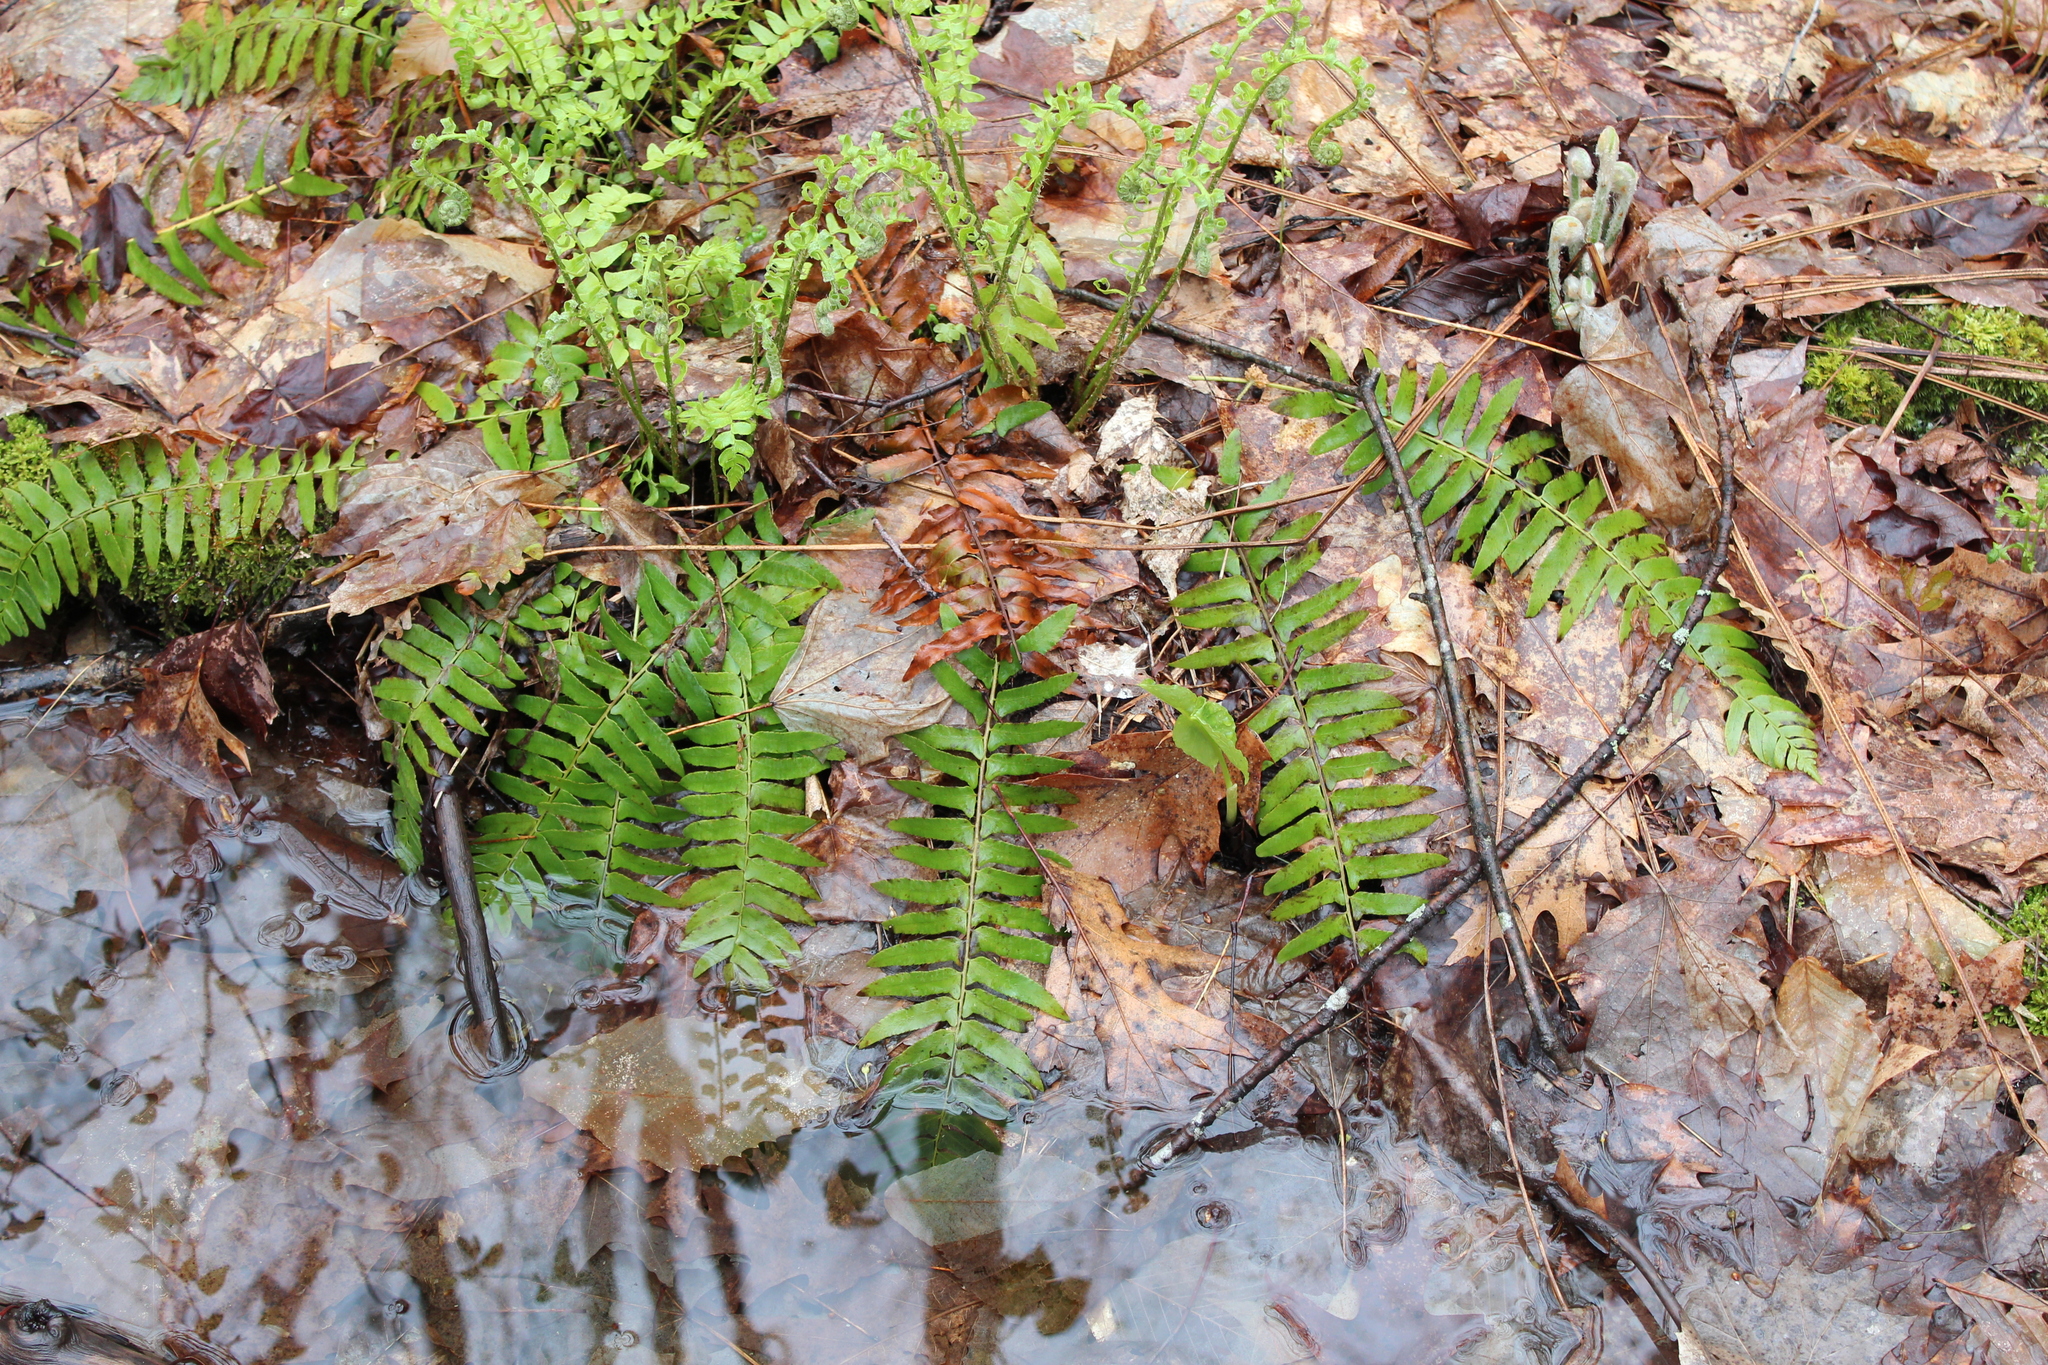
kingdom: Plantae
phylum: Tracheophyta
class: Polypodiopsida
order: Polypodiales
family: Dryopteridaceae
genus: Polystichum
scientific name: Polystichum acrostichoides
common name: Christmas fern
